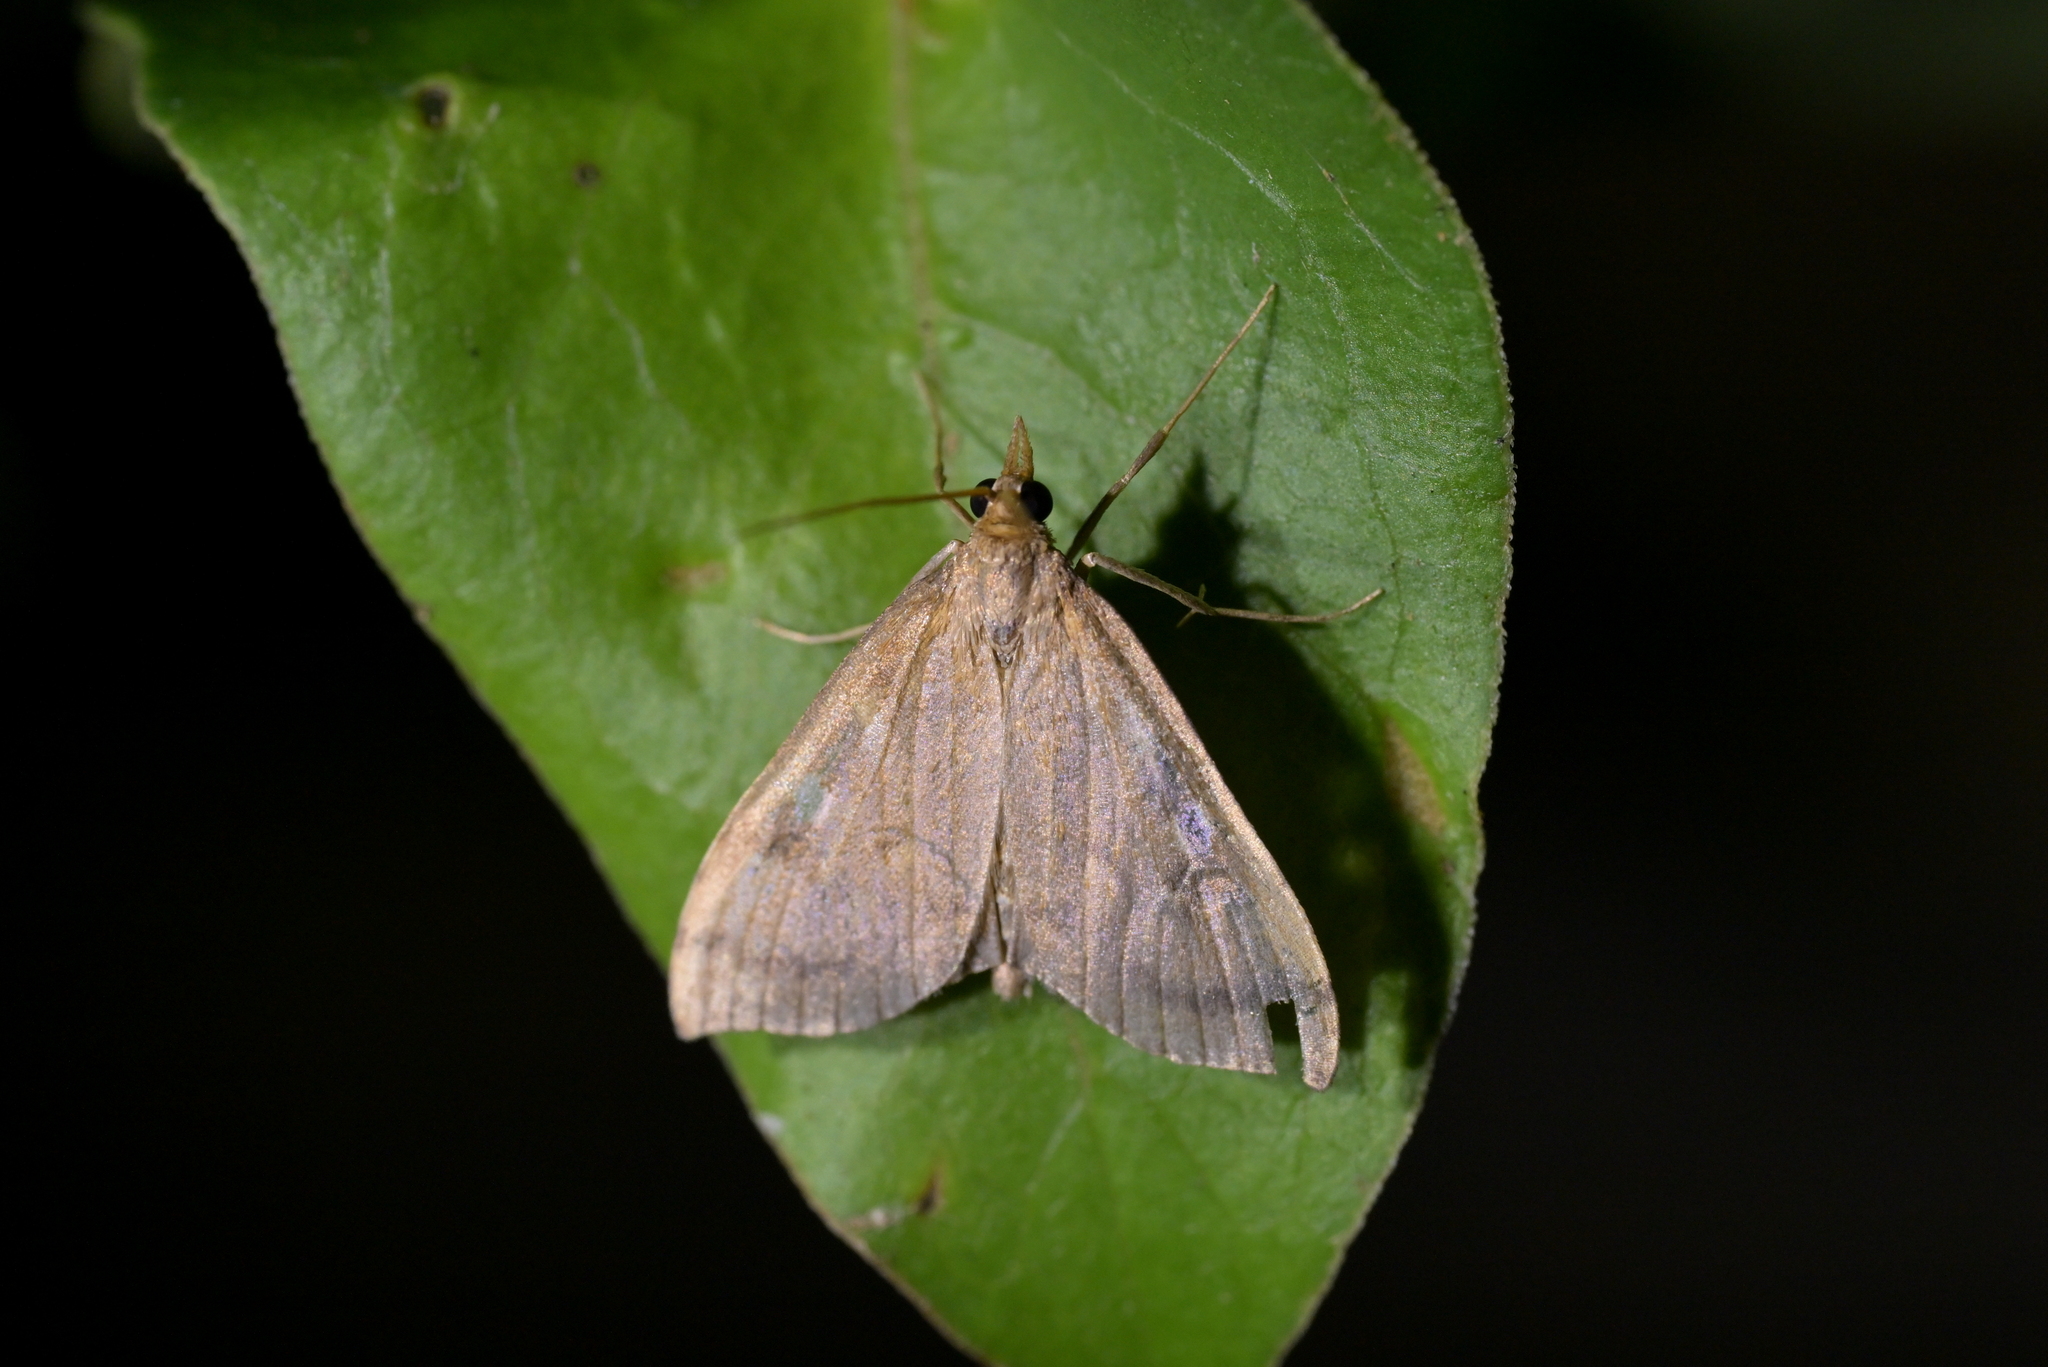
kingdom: Animalia
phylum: Arthropoda
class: Insecta
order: Lepidoptera
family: Crambidae
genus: Udea
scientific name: Udea Mnesictena flavidalis
